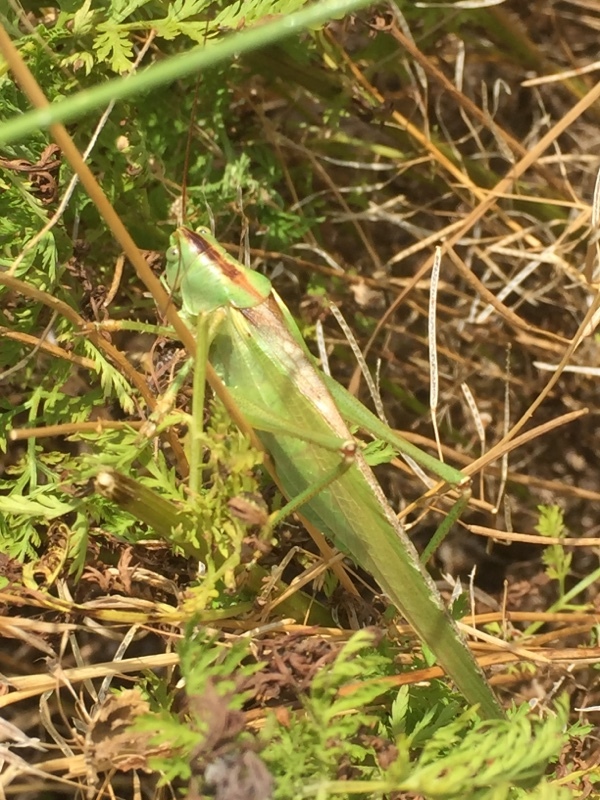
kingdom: Animalia
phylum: Arthropoda
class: Insecta
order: Orthoptera
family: Tettigoniidae
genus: Tettigonia
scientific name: Tettigonia viridissima
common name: Great green bush-cricket
